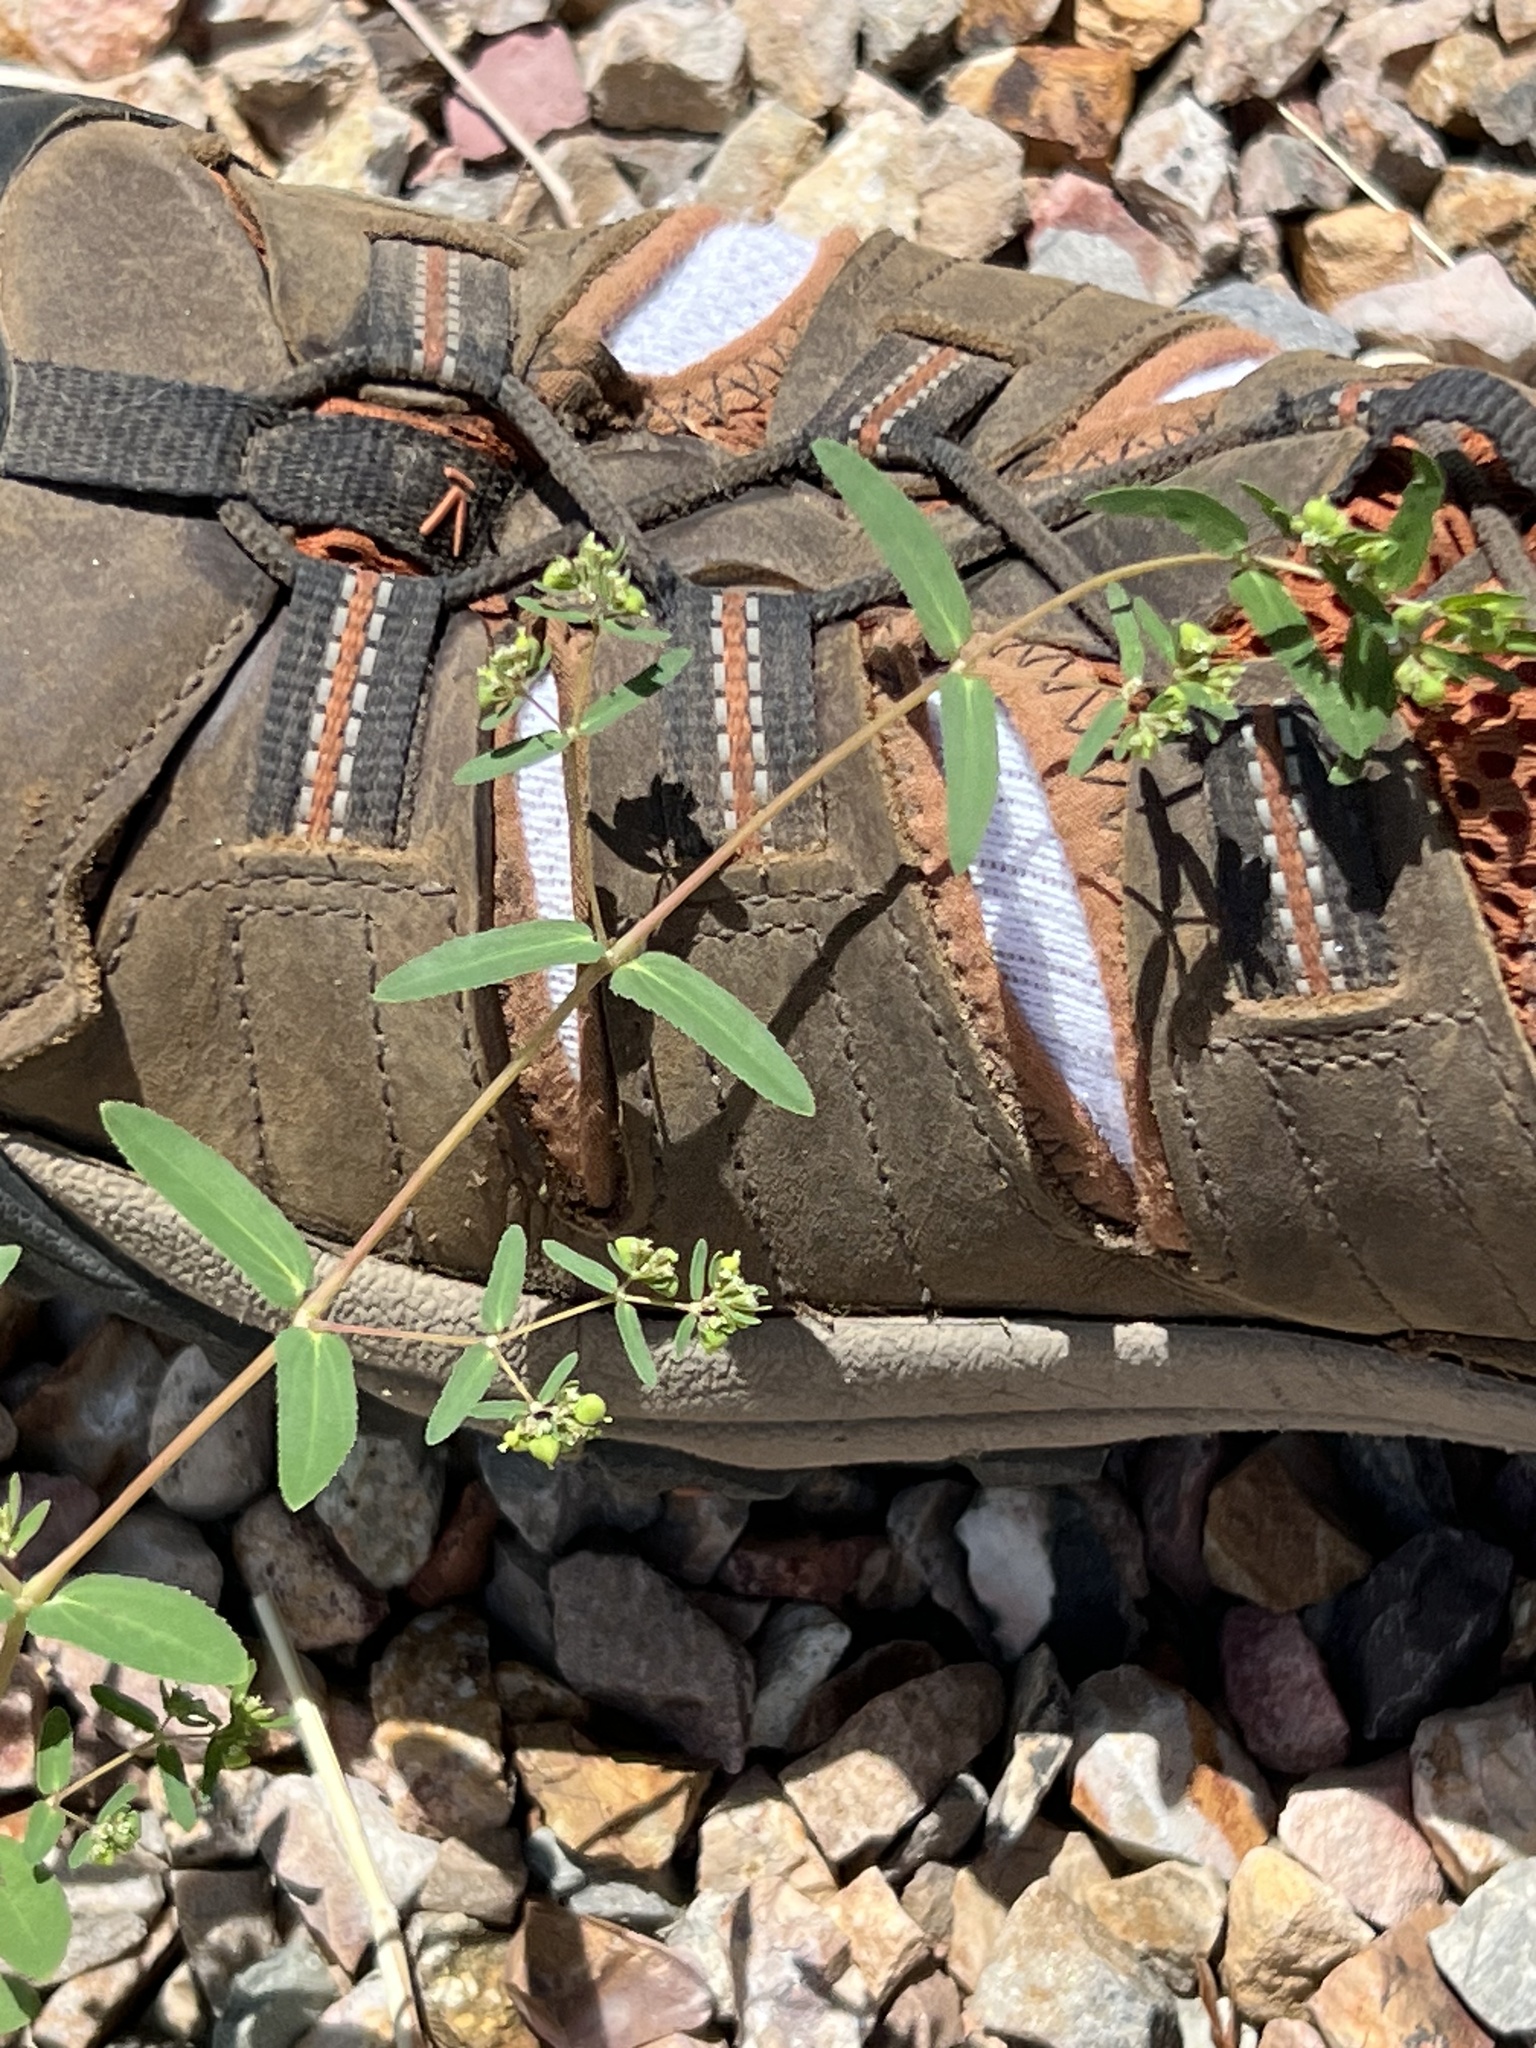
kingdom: Plantae
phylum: Tracheophyta
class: Magnoliopsida
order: Malpighiales
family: Euphorbiaceae
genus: Euphorbia
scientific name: Euphorbia hyssopifolia
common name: Hyssopleaf sandmat
